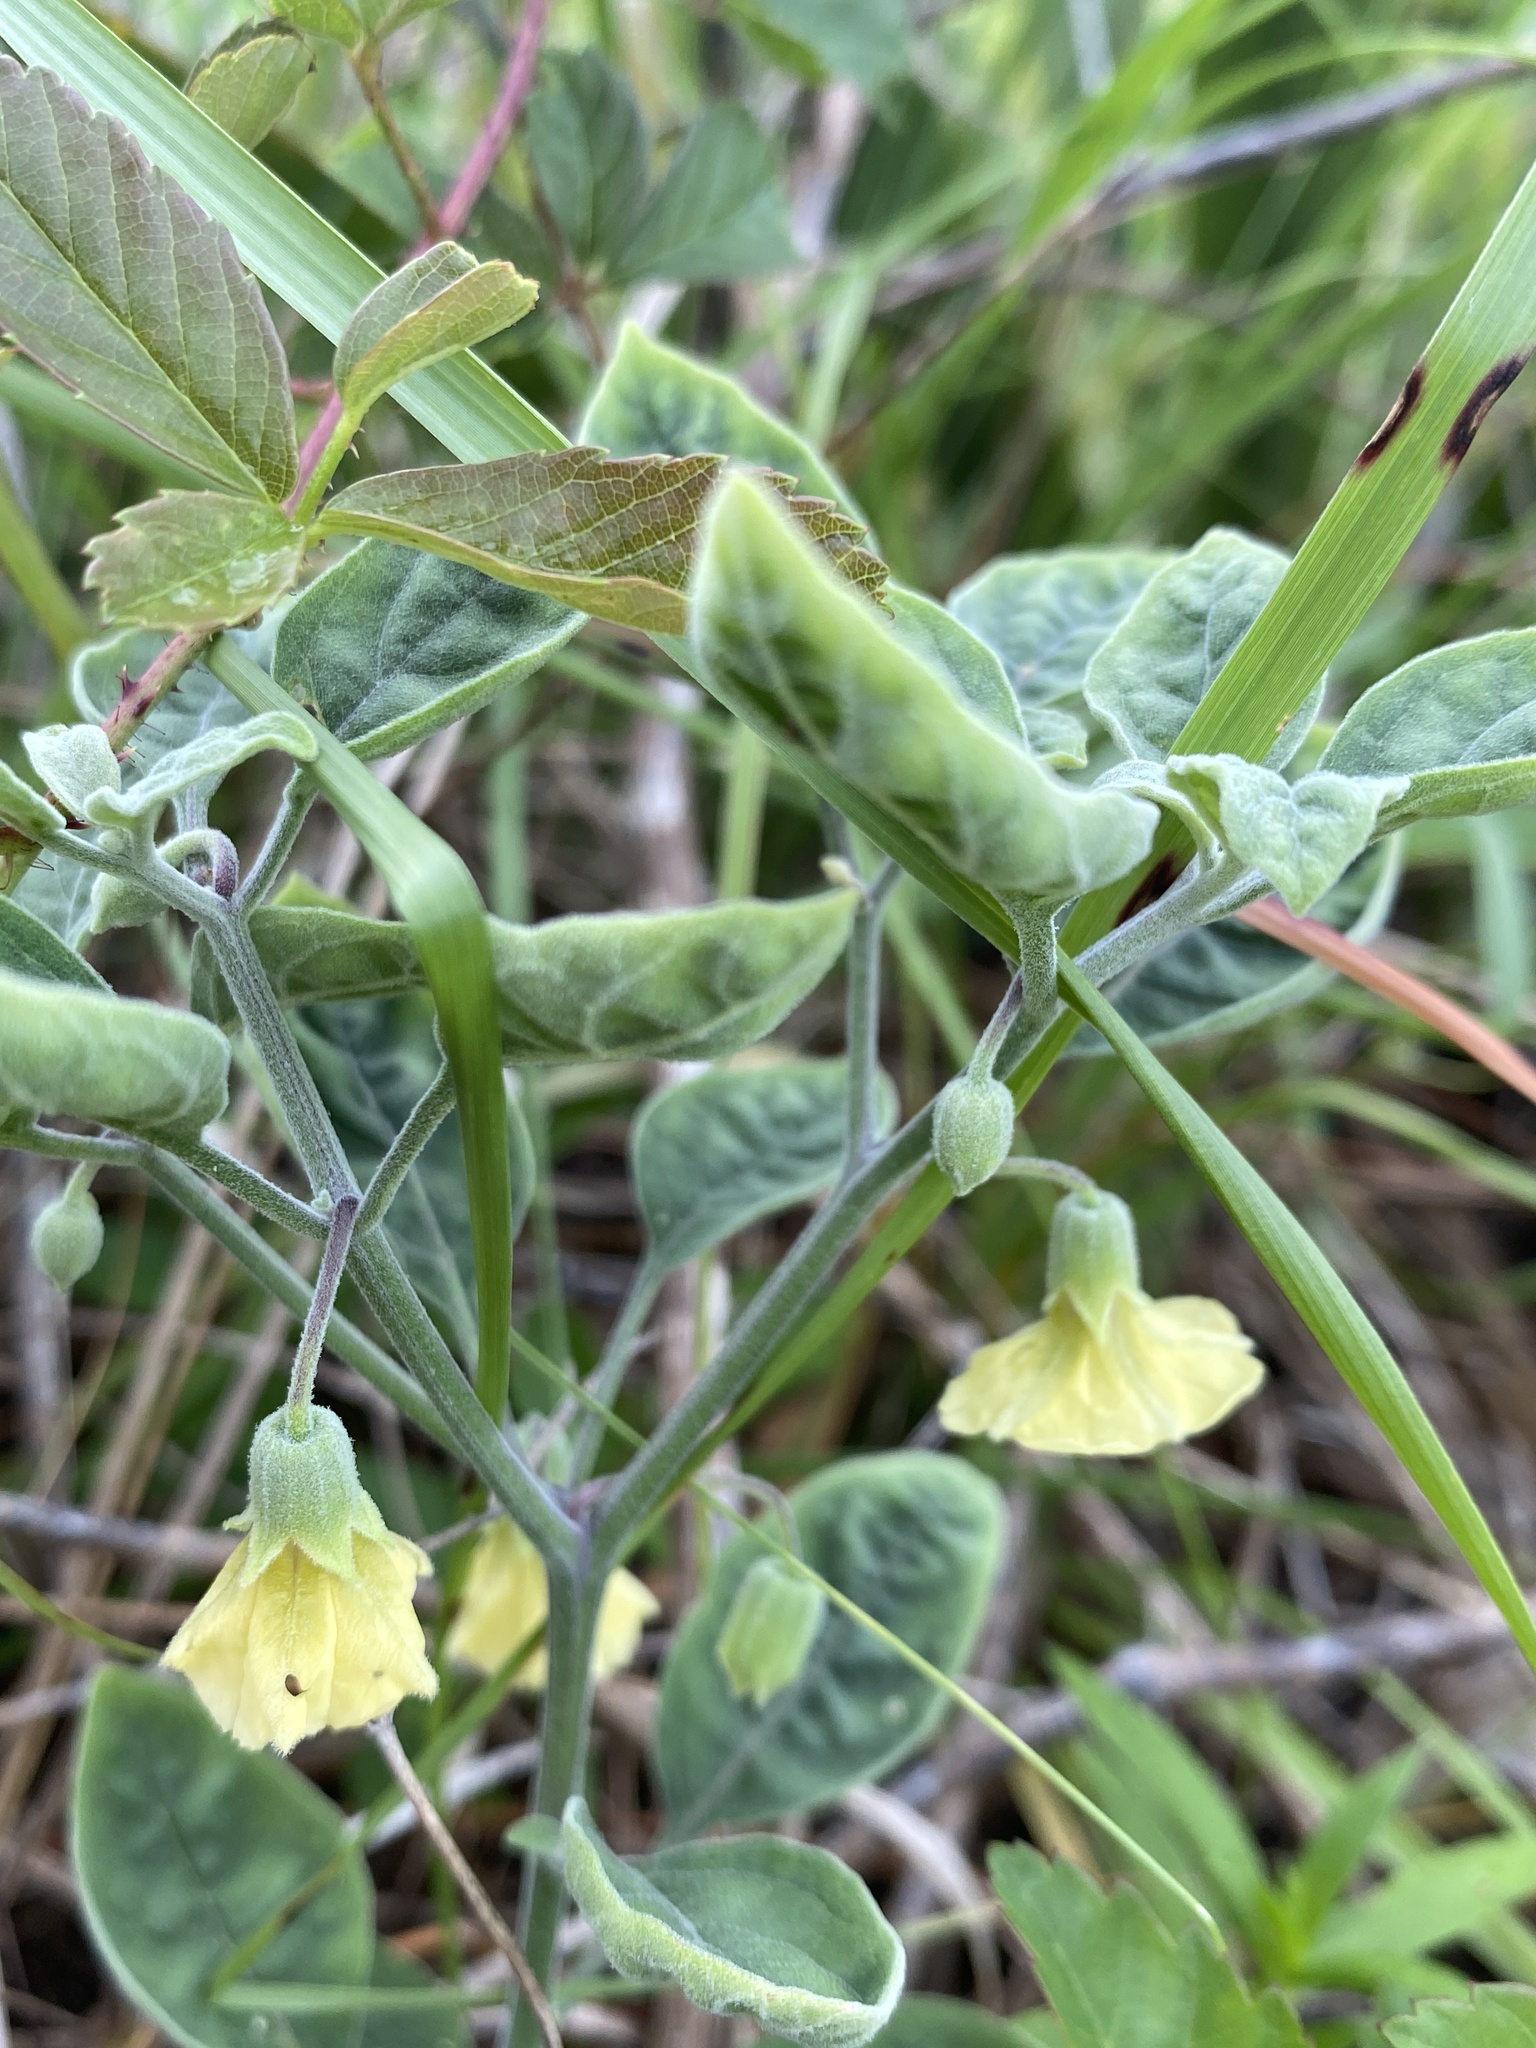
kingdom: Plantae
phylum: Tracheophyta
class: Magnoliopsida
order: Solanales
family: Solanaceae
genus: Physalis
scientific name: Physalis walteri
